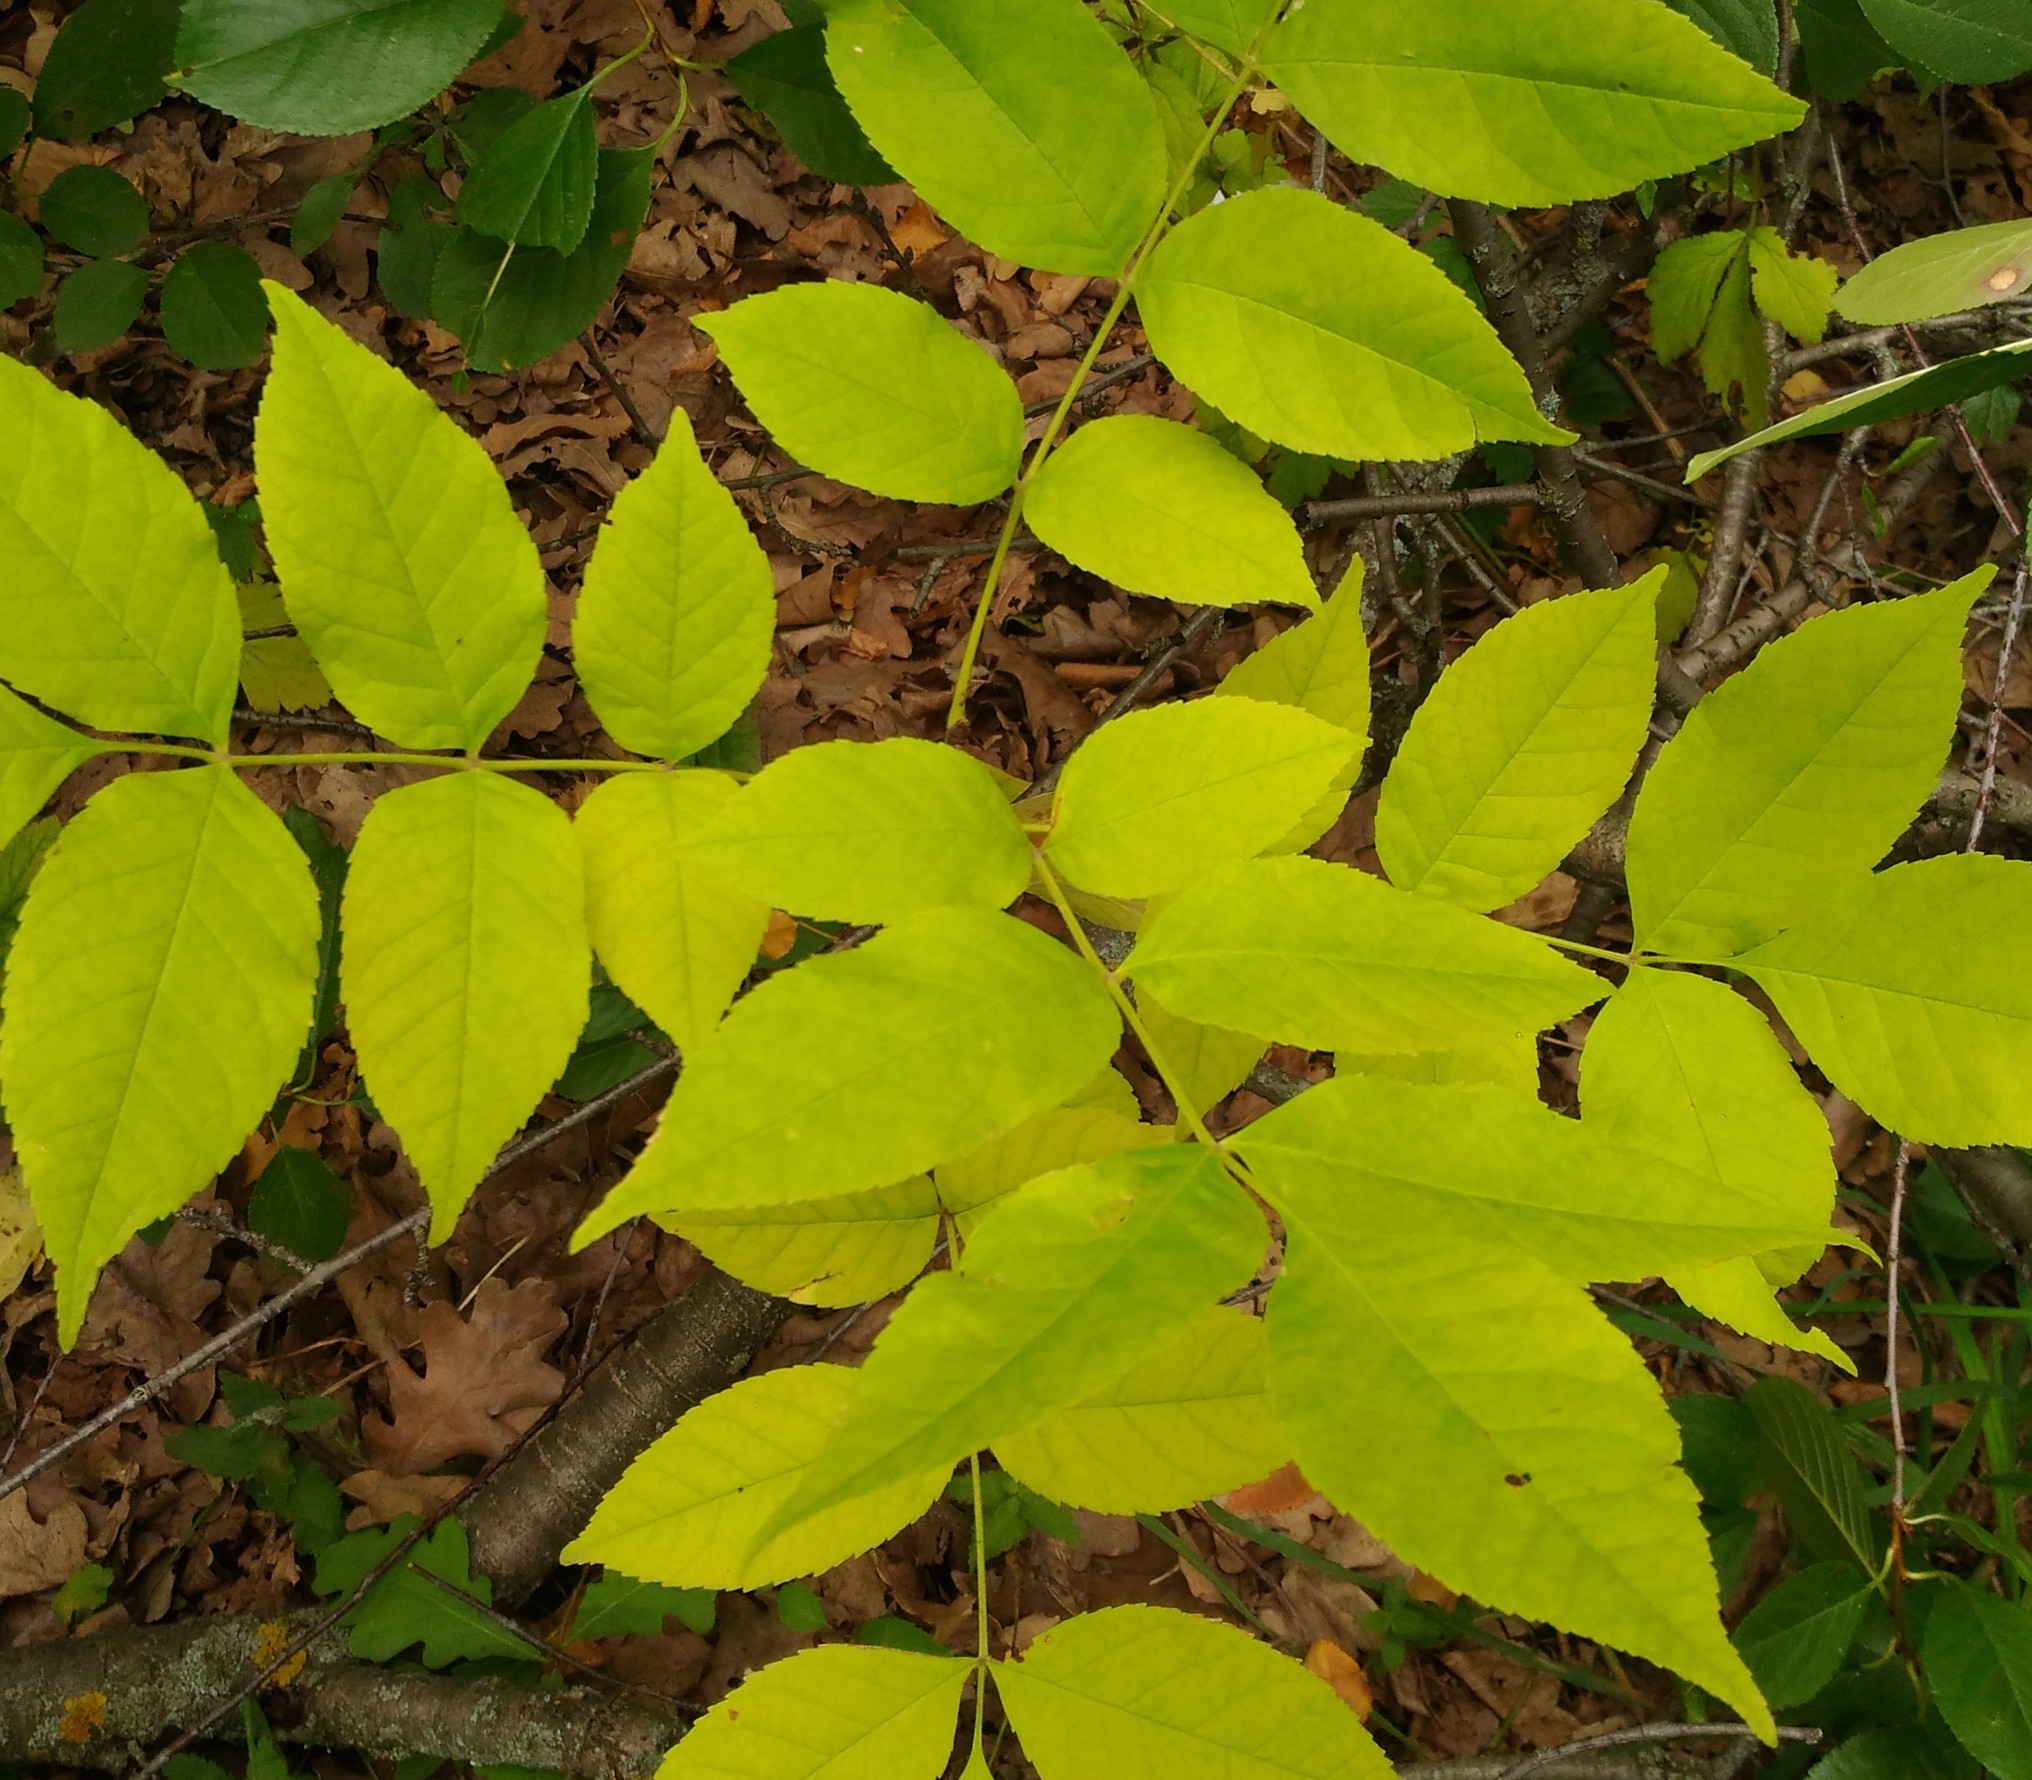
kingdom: Plantae
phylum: Tracheophyta
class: Magnoliopsida
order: Lamiales
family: Oleaceae
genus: Fraxinus
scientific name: Fraxinus pennsylvanica
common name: Green ash
